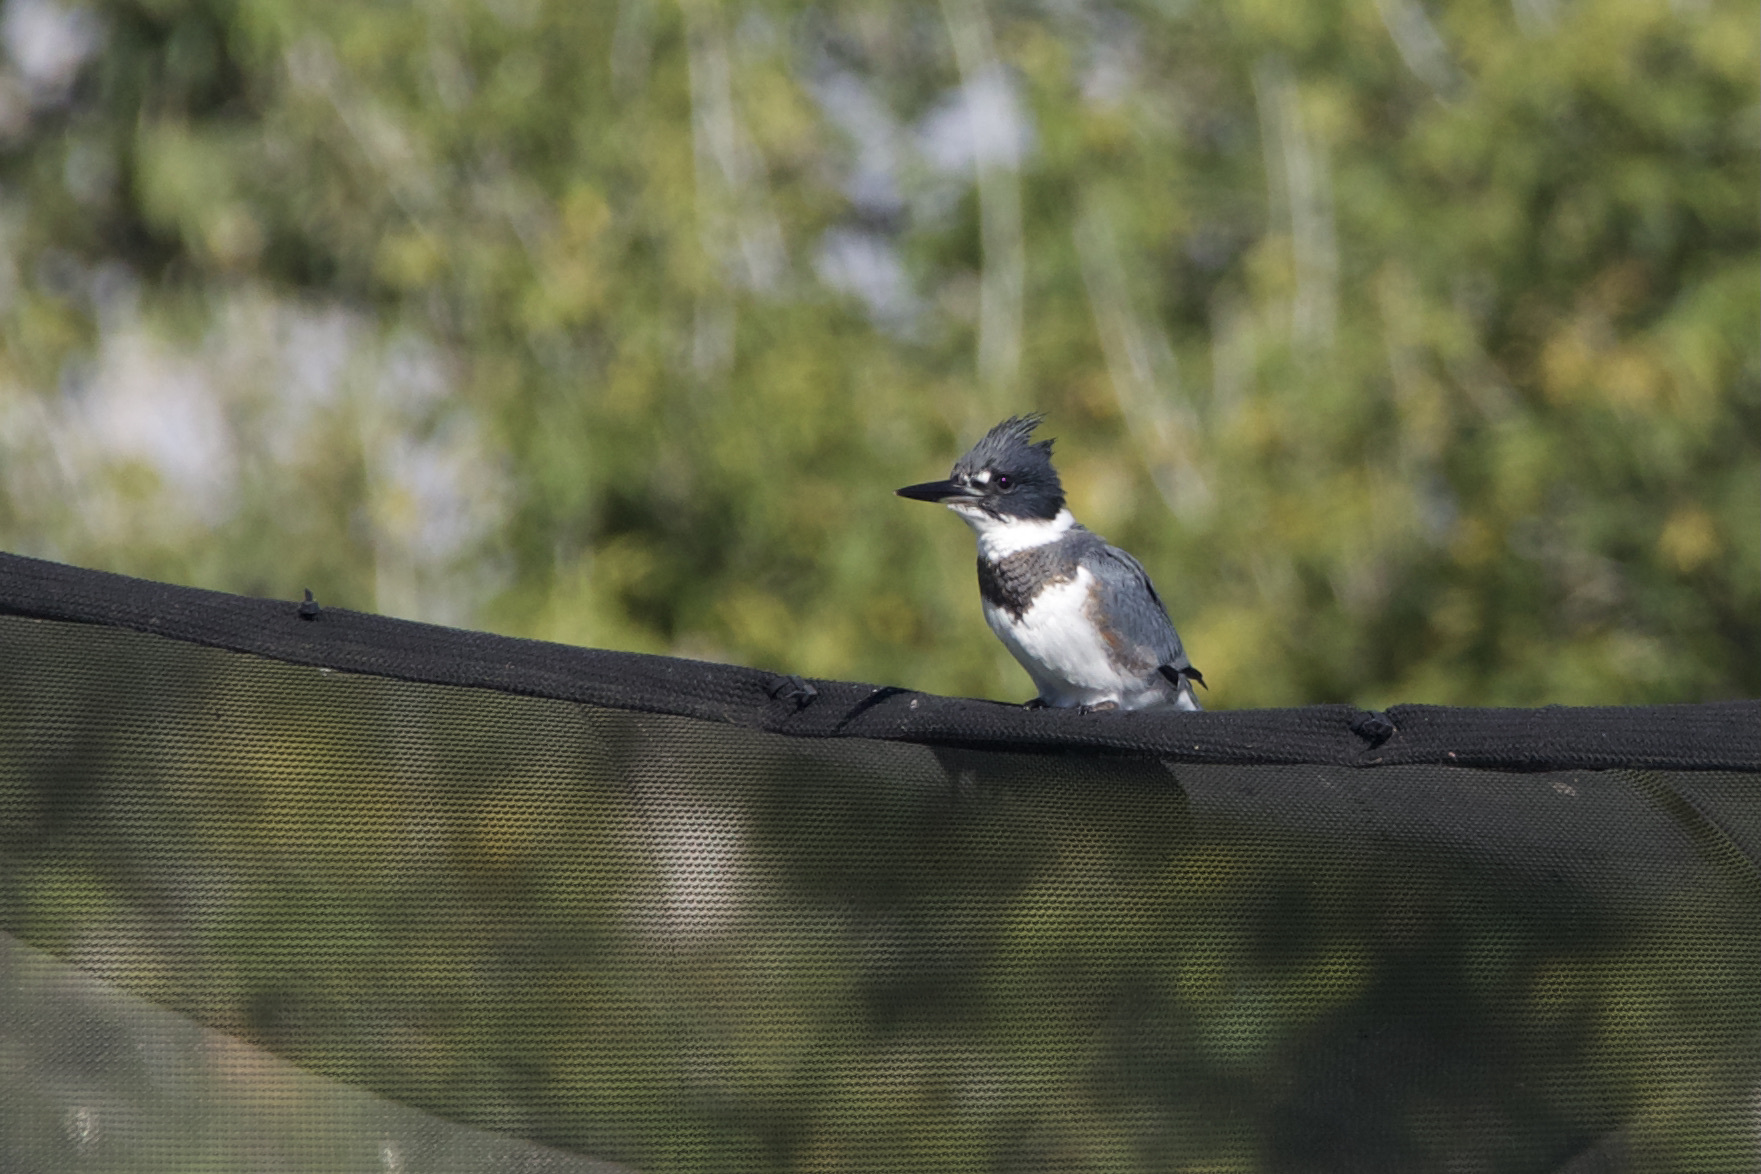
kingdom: Animalia
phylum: Chordata
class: Aves
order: Coraciiformes
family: Alcedinidae
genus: Megaceryle
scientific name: Megaceryle alcyon
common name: Belted kingfisher
